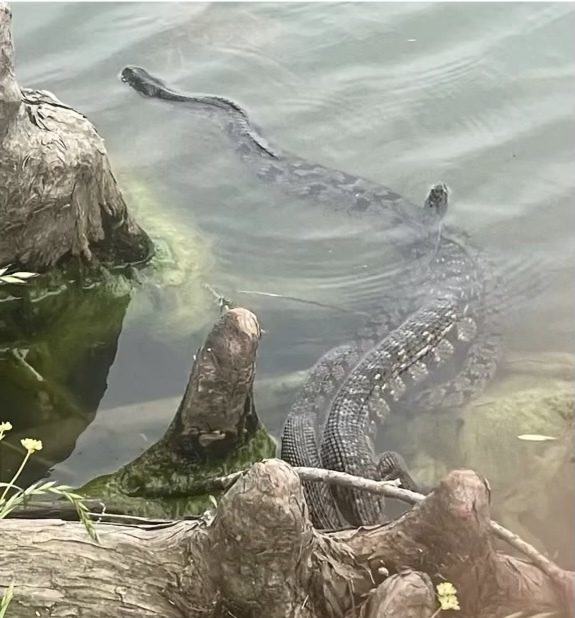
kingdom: Animalia
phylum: Chordata
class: Squamata
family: Colubridae
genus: Nerodia
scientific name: Nerodia rhombifer
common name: Diamondback water snake
